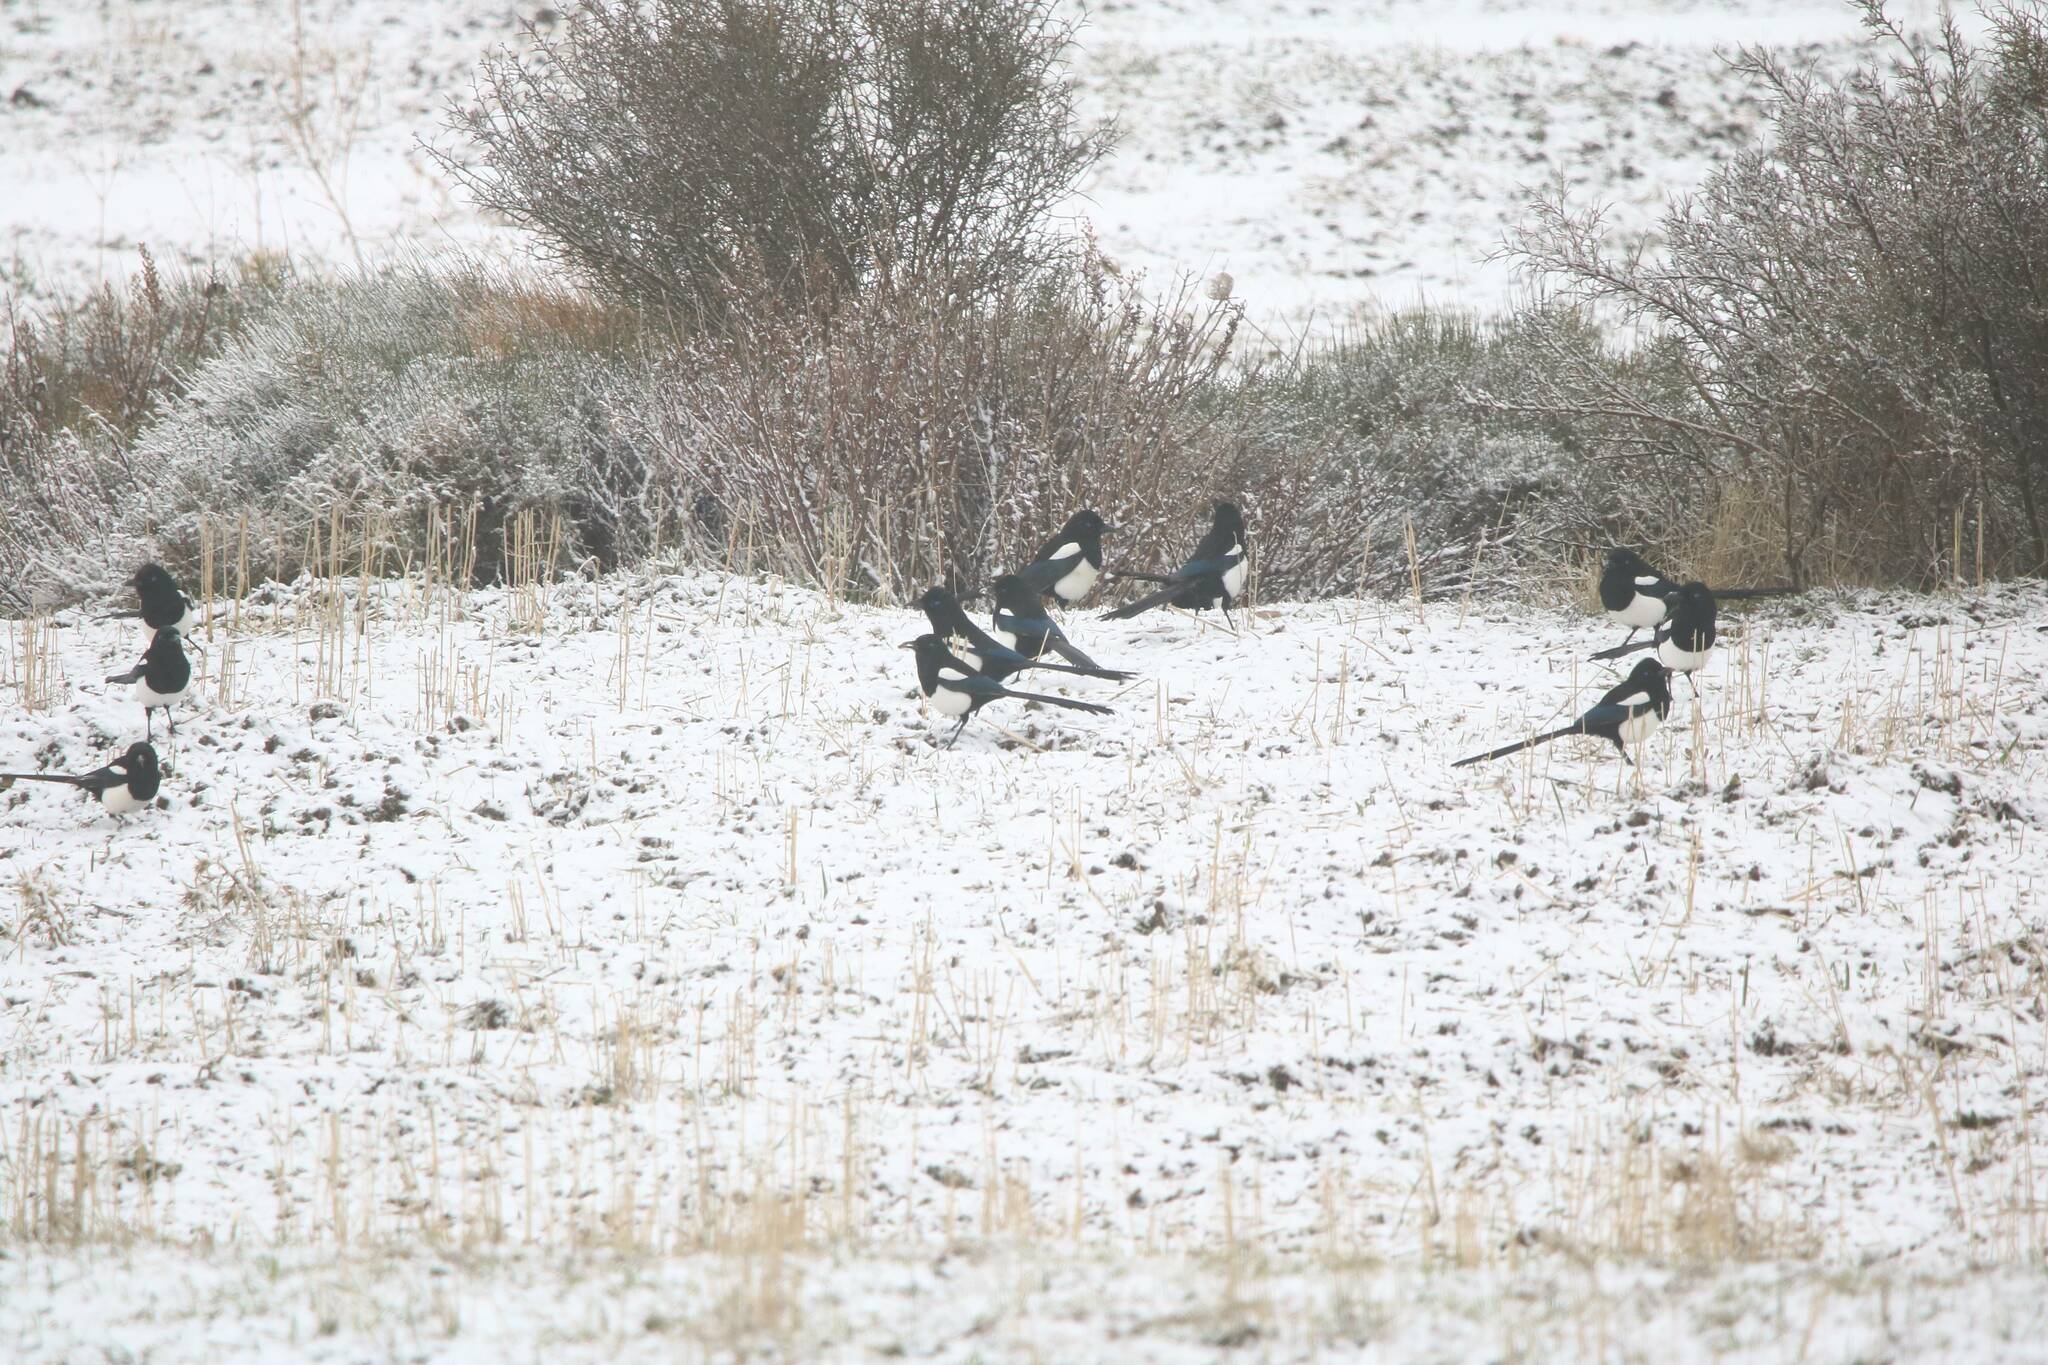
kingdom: Animalia
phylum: Chordata
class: Aves
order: Passeriformes
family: Corvidae
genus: Pica
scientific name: Pica mauritanica
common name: Maghreb magpie
